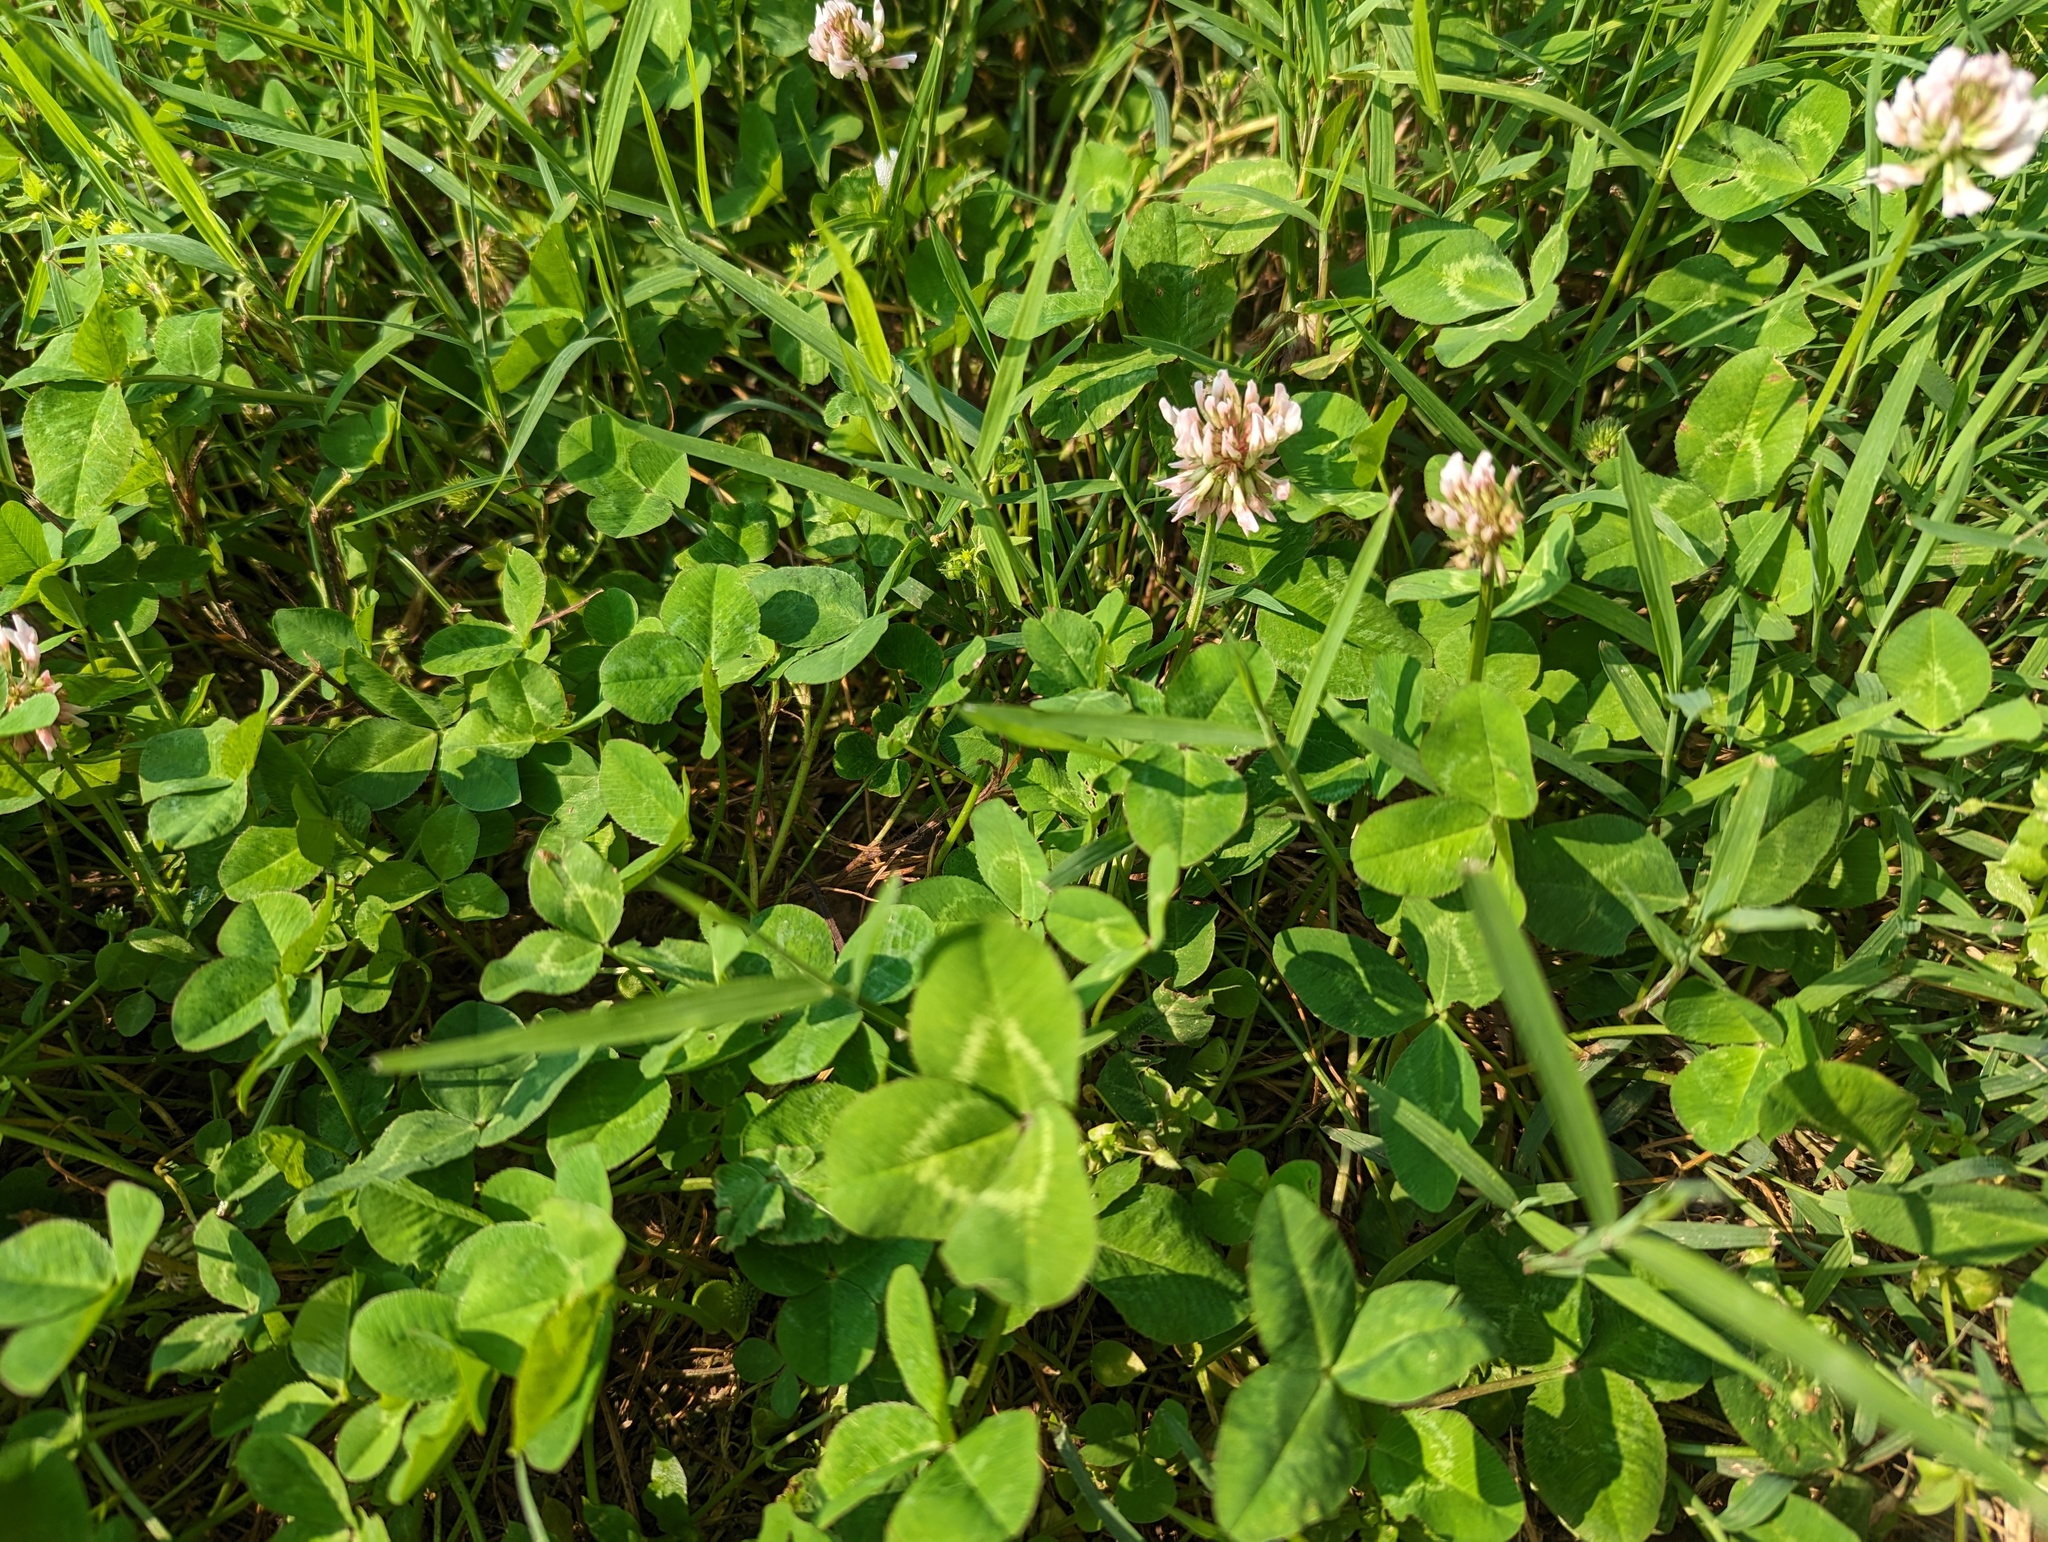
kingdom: Plantae
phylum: Tracheophyta
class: Magnoliopsida
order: Fabales
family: Fabaceae
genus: Trifolium
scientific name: Trifolium repens
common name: White clover
